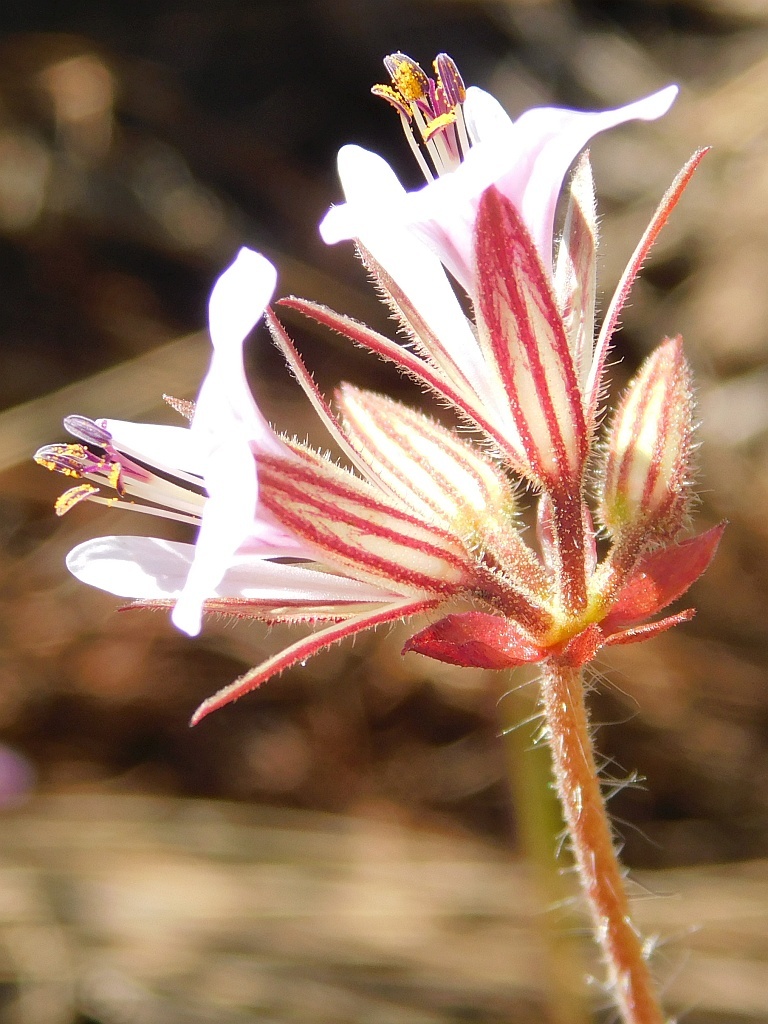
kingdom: Plantae
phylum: Tracheophyta
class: Magnoliopsida
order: Geraniales
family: Geraniaceae
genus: Pelargonium
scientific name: Pelargonium myrrhifolium
